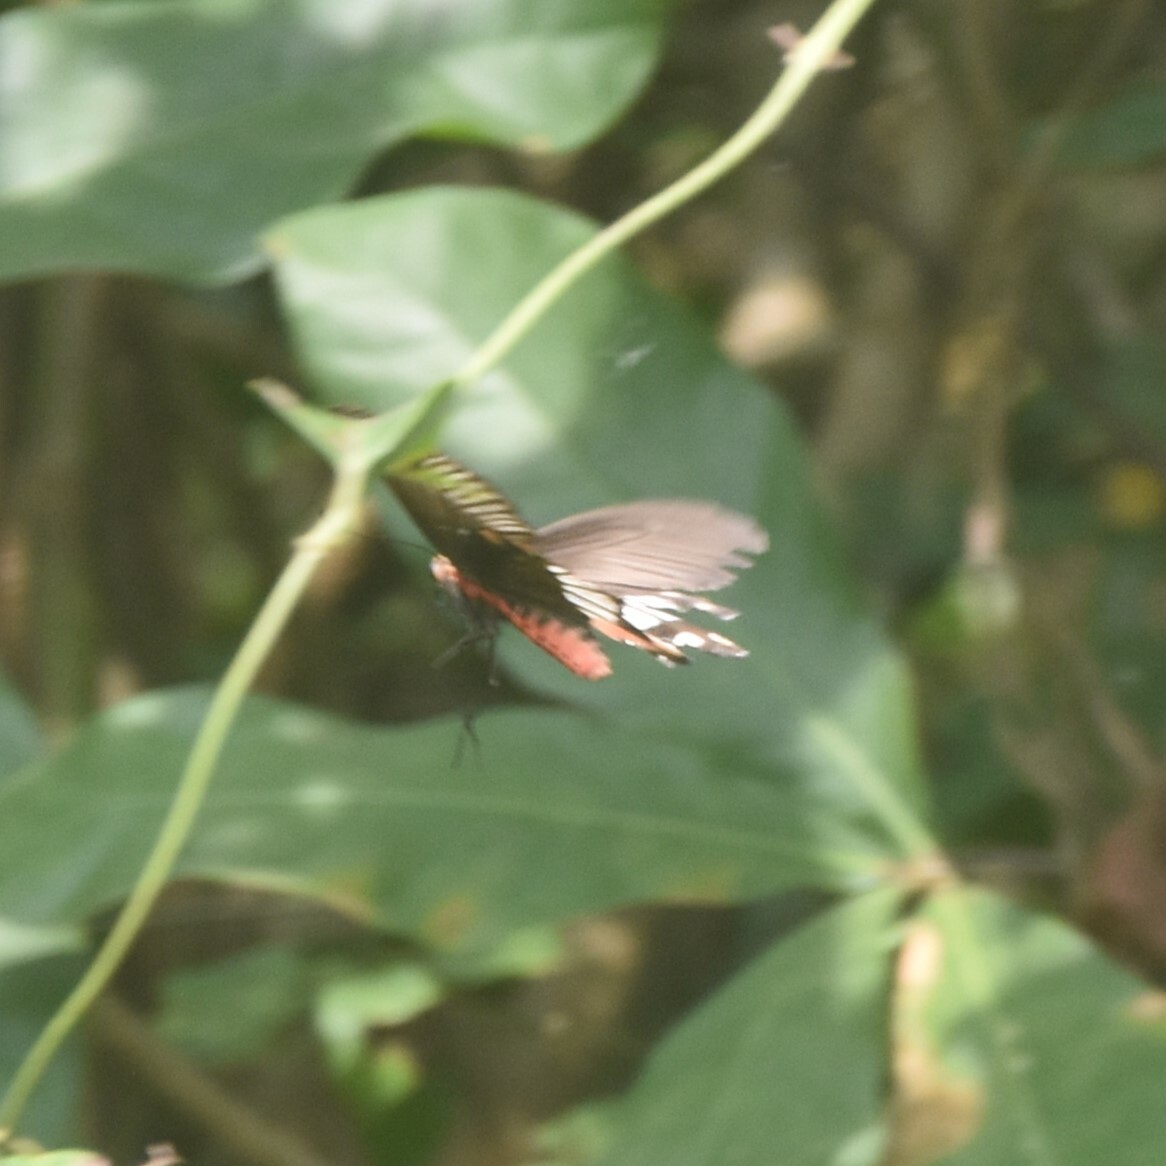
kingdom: Animalia
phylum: Arthropoda
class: Insecta
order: Lepidoptera
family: Papilionidae
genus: Pachliopta
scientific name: Pachliopta aristolochiae
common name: Common rose
